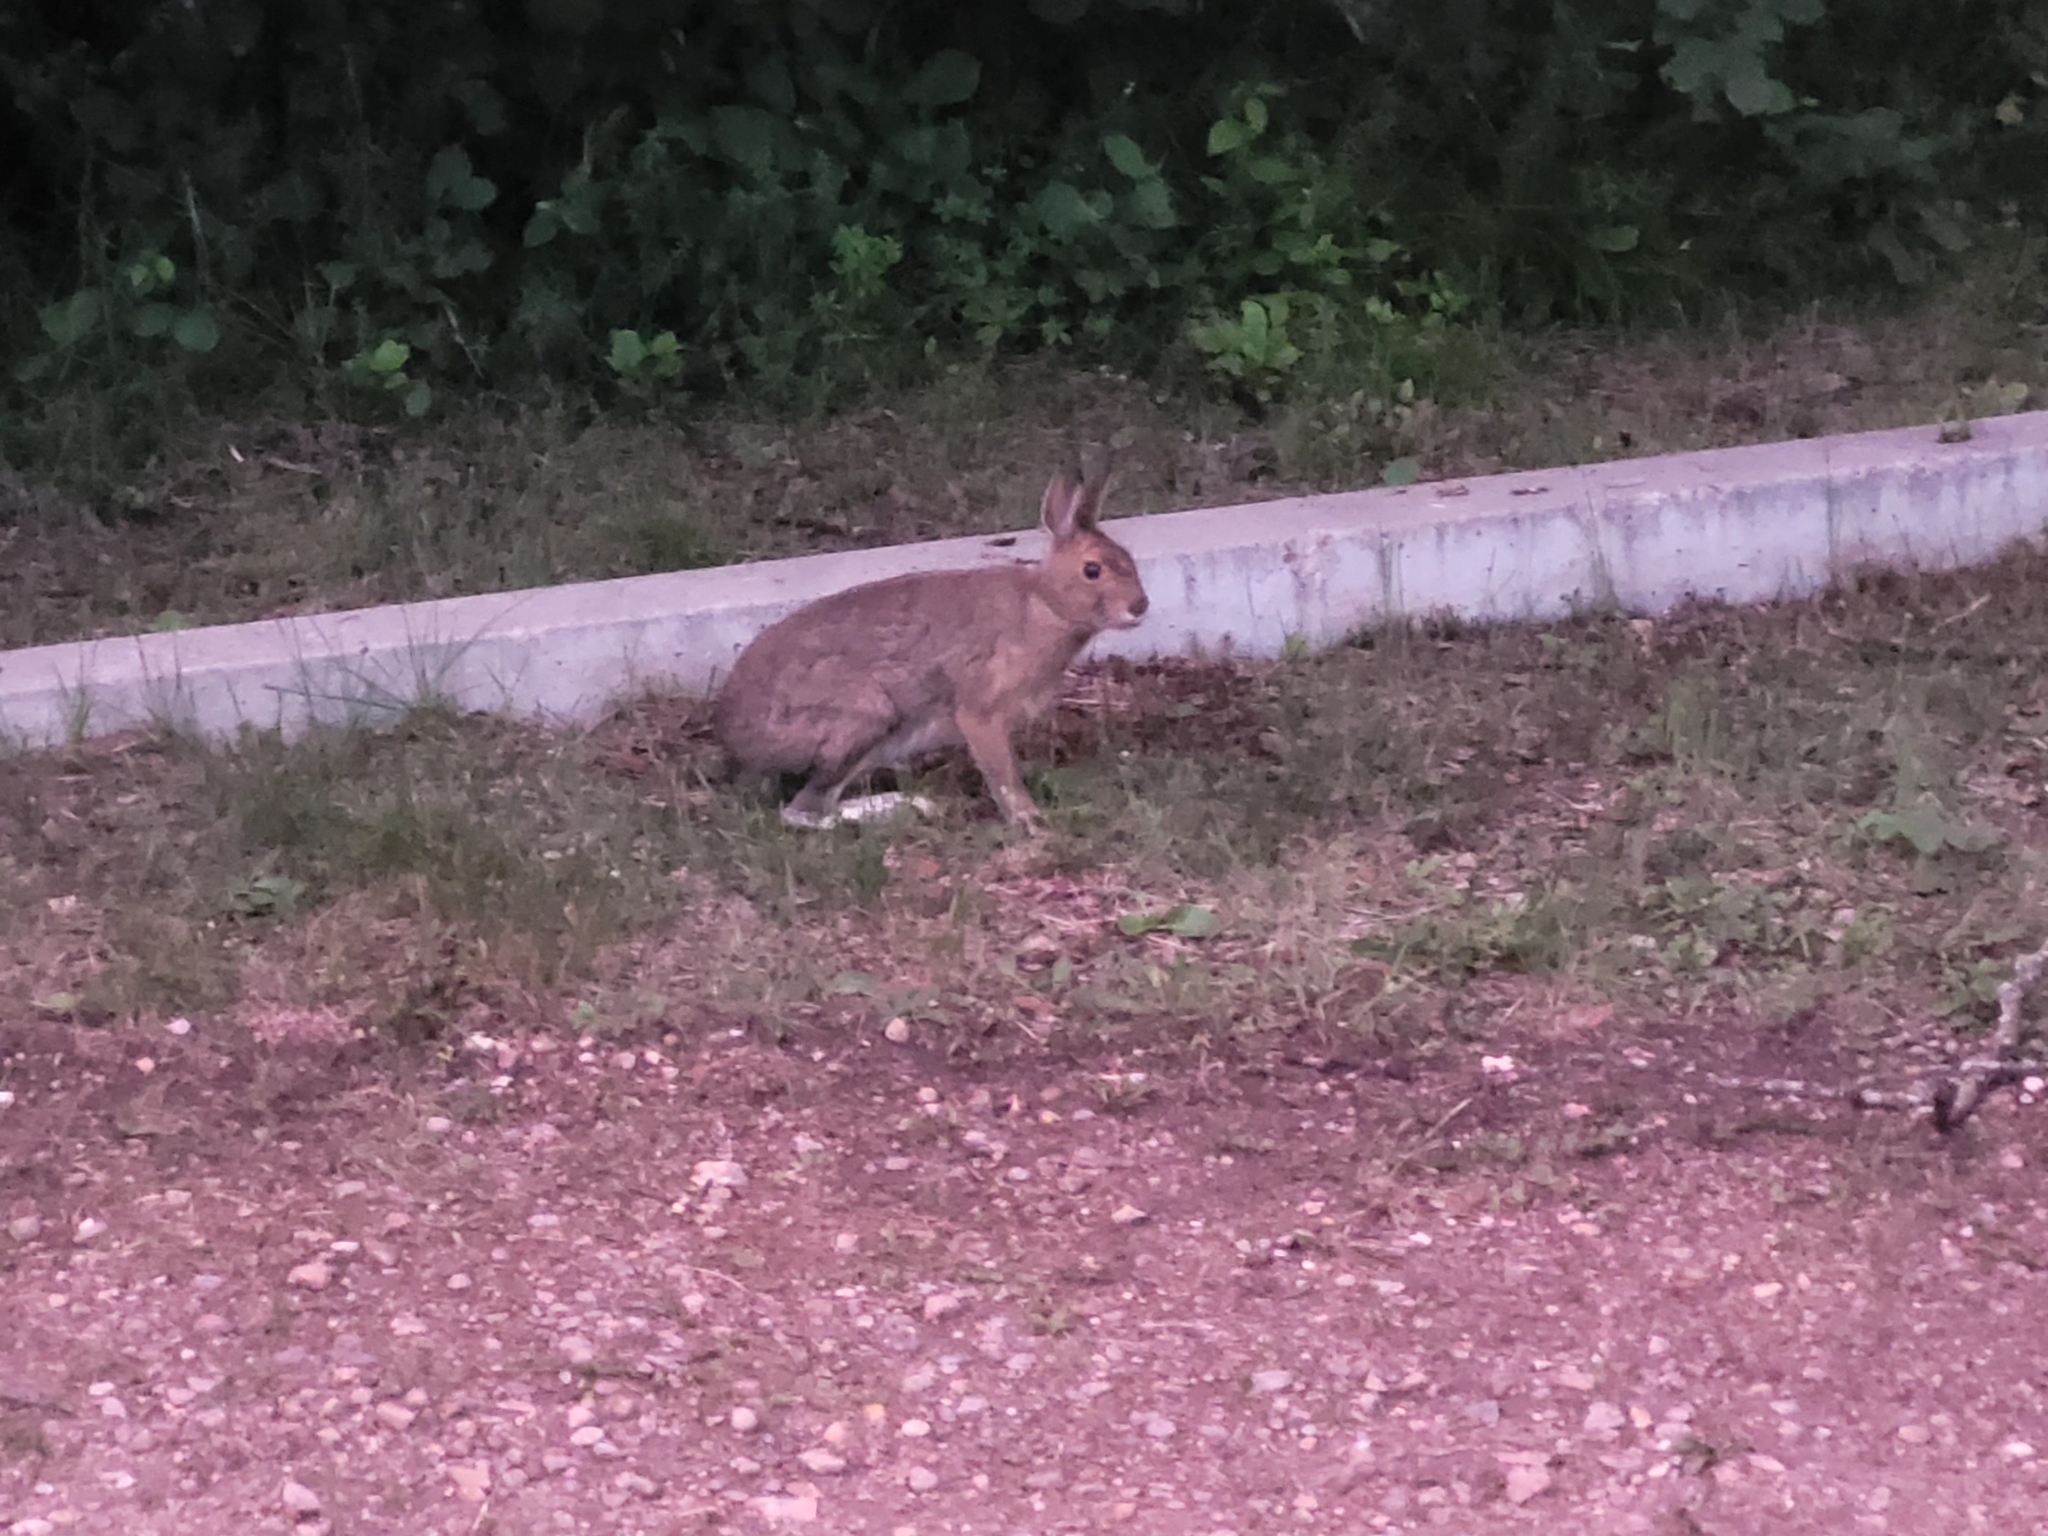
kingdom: Animalia
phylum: Chordata
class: Mammalia
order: Lagomorpha
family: Leporidae
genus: Lepus
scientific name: Lepus americanus
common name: Snowshoe hare
